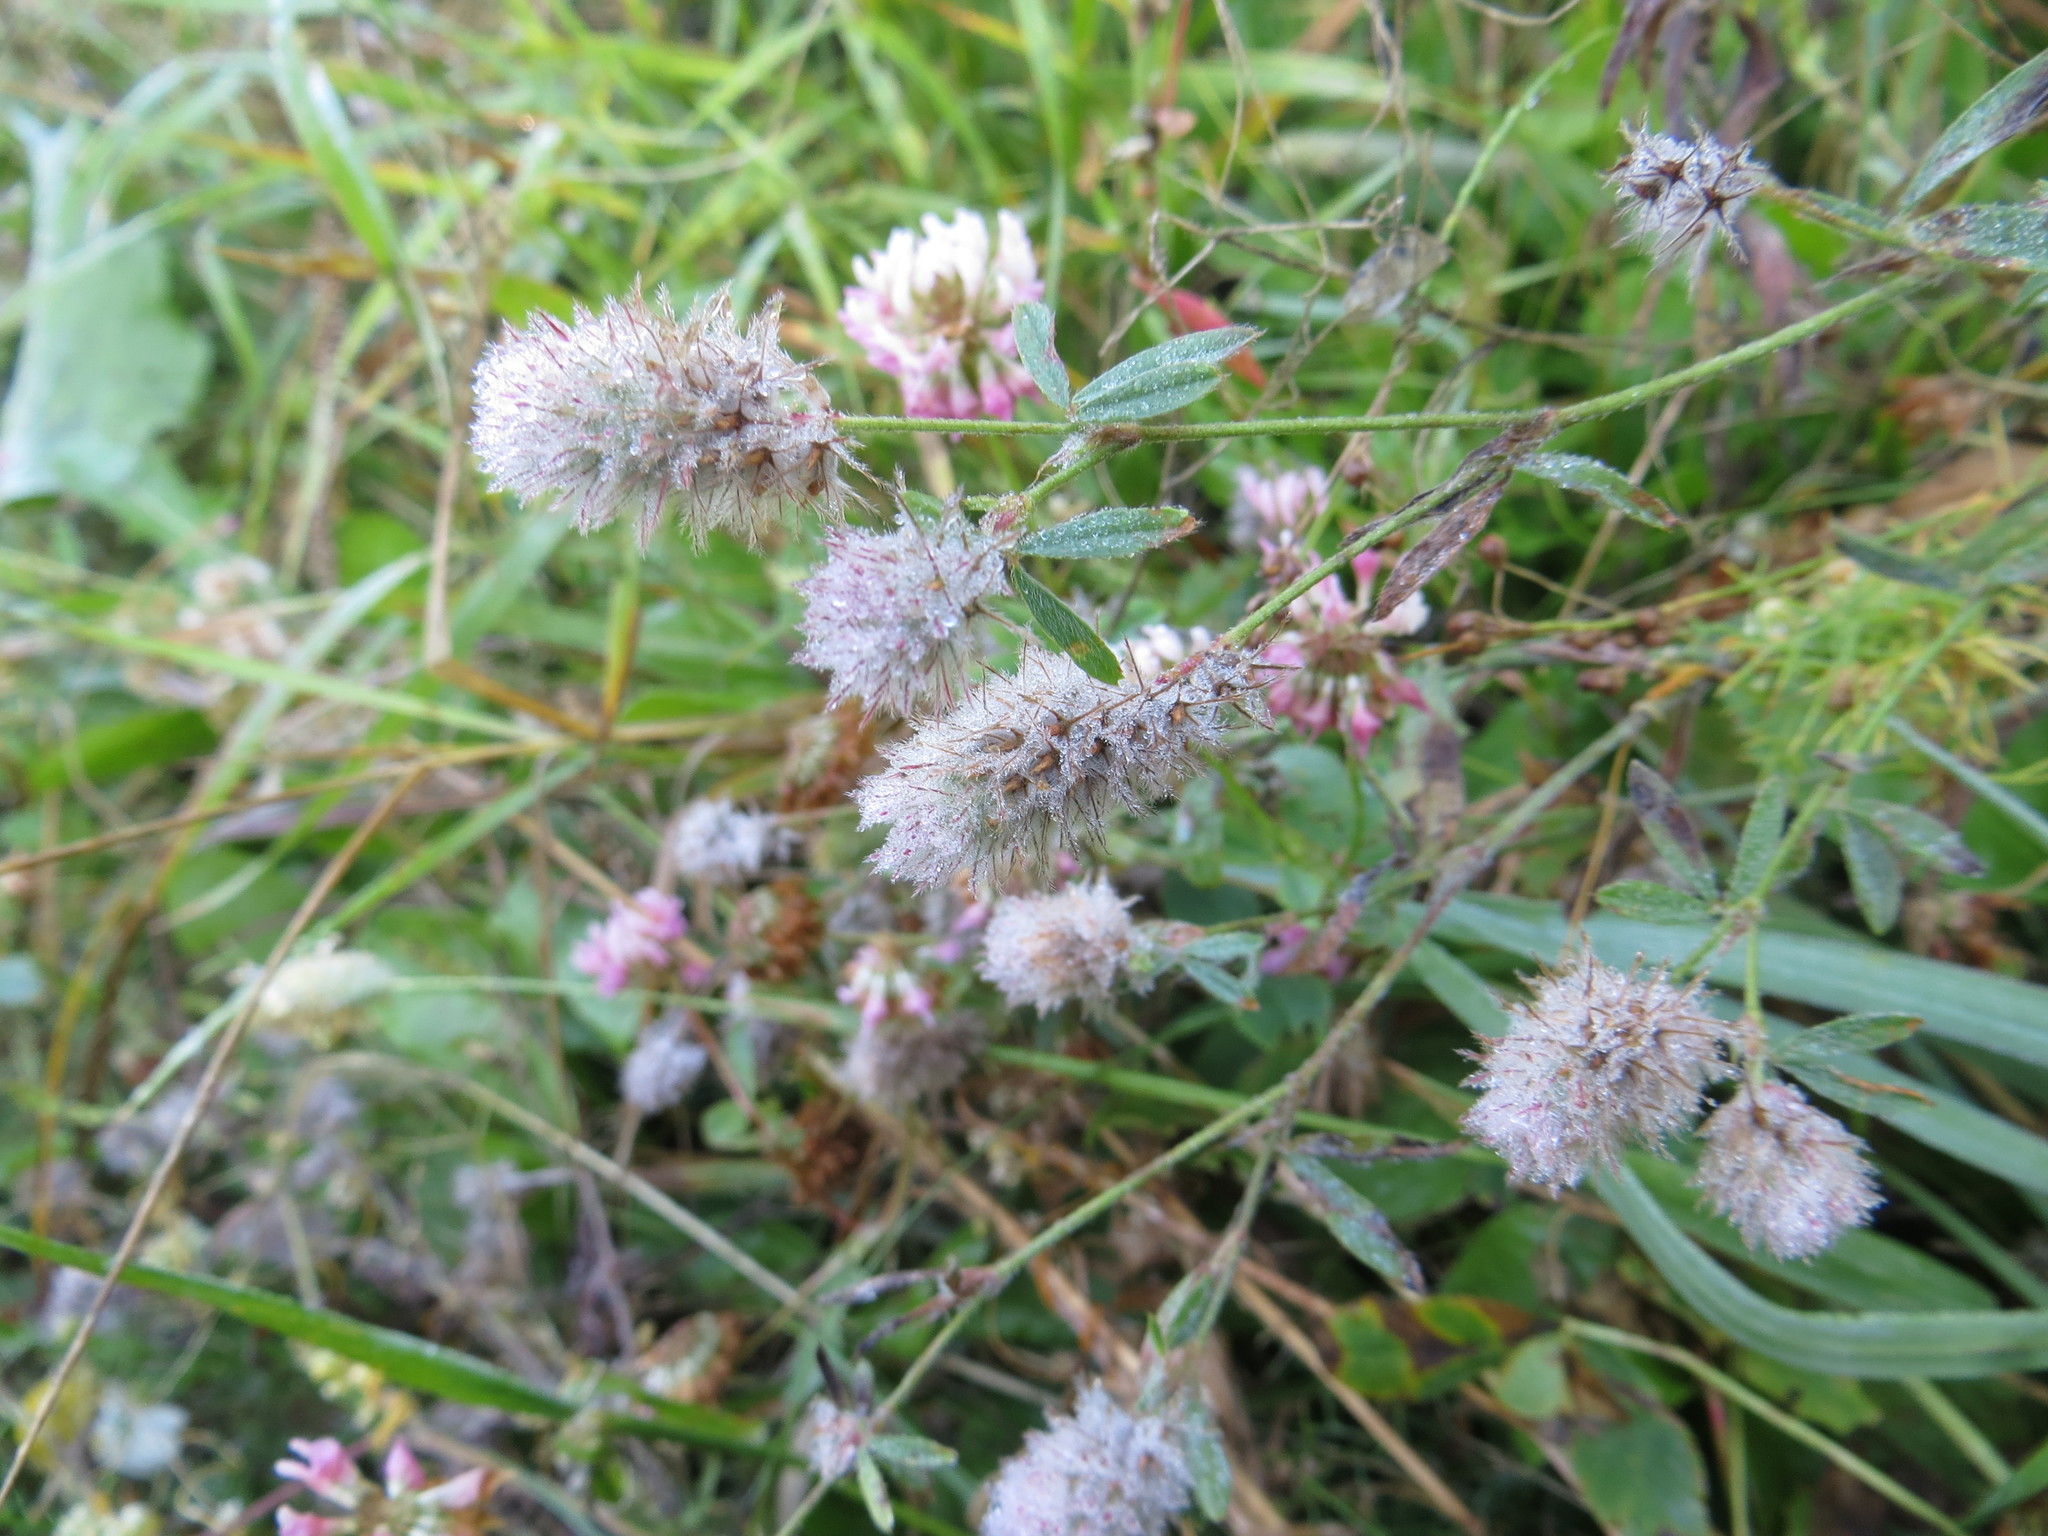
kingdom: Plantae
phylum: Tracheophyta
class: Magnoliopsida
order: Fabales
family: Fabaceae
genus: Trifolium
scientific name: Trifolium arvense
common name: Hare's-foot clover
